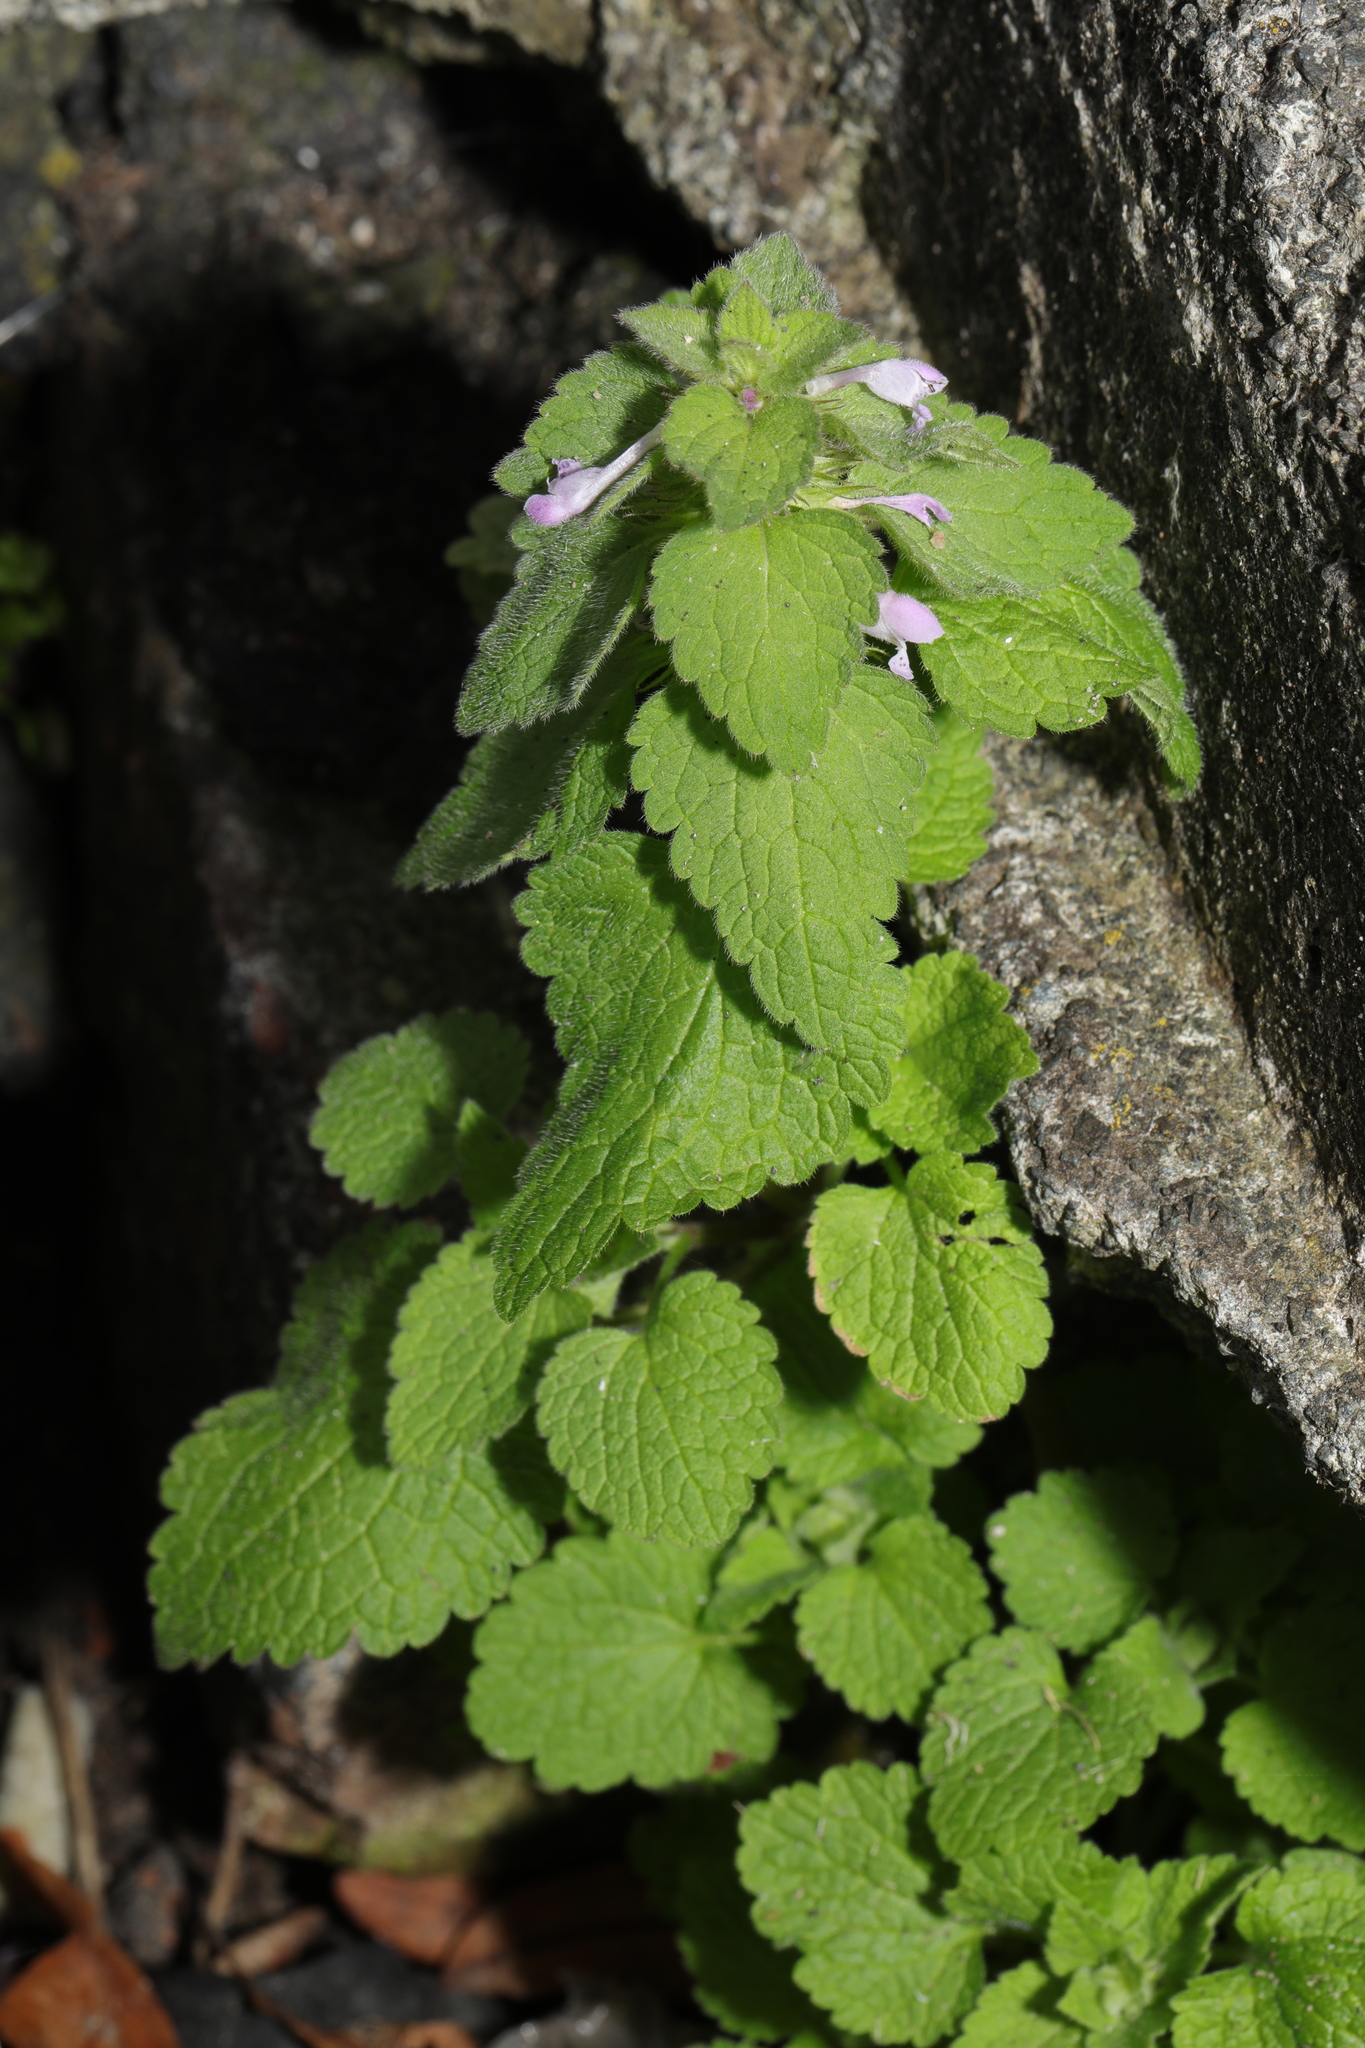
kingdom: Plantae
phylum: Tracheophyta
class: Magnoliopsida
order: Lamiales
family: Lamiaceae
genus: Lamium
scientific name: Lamium purpureum
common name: Red dead-nettle
